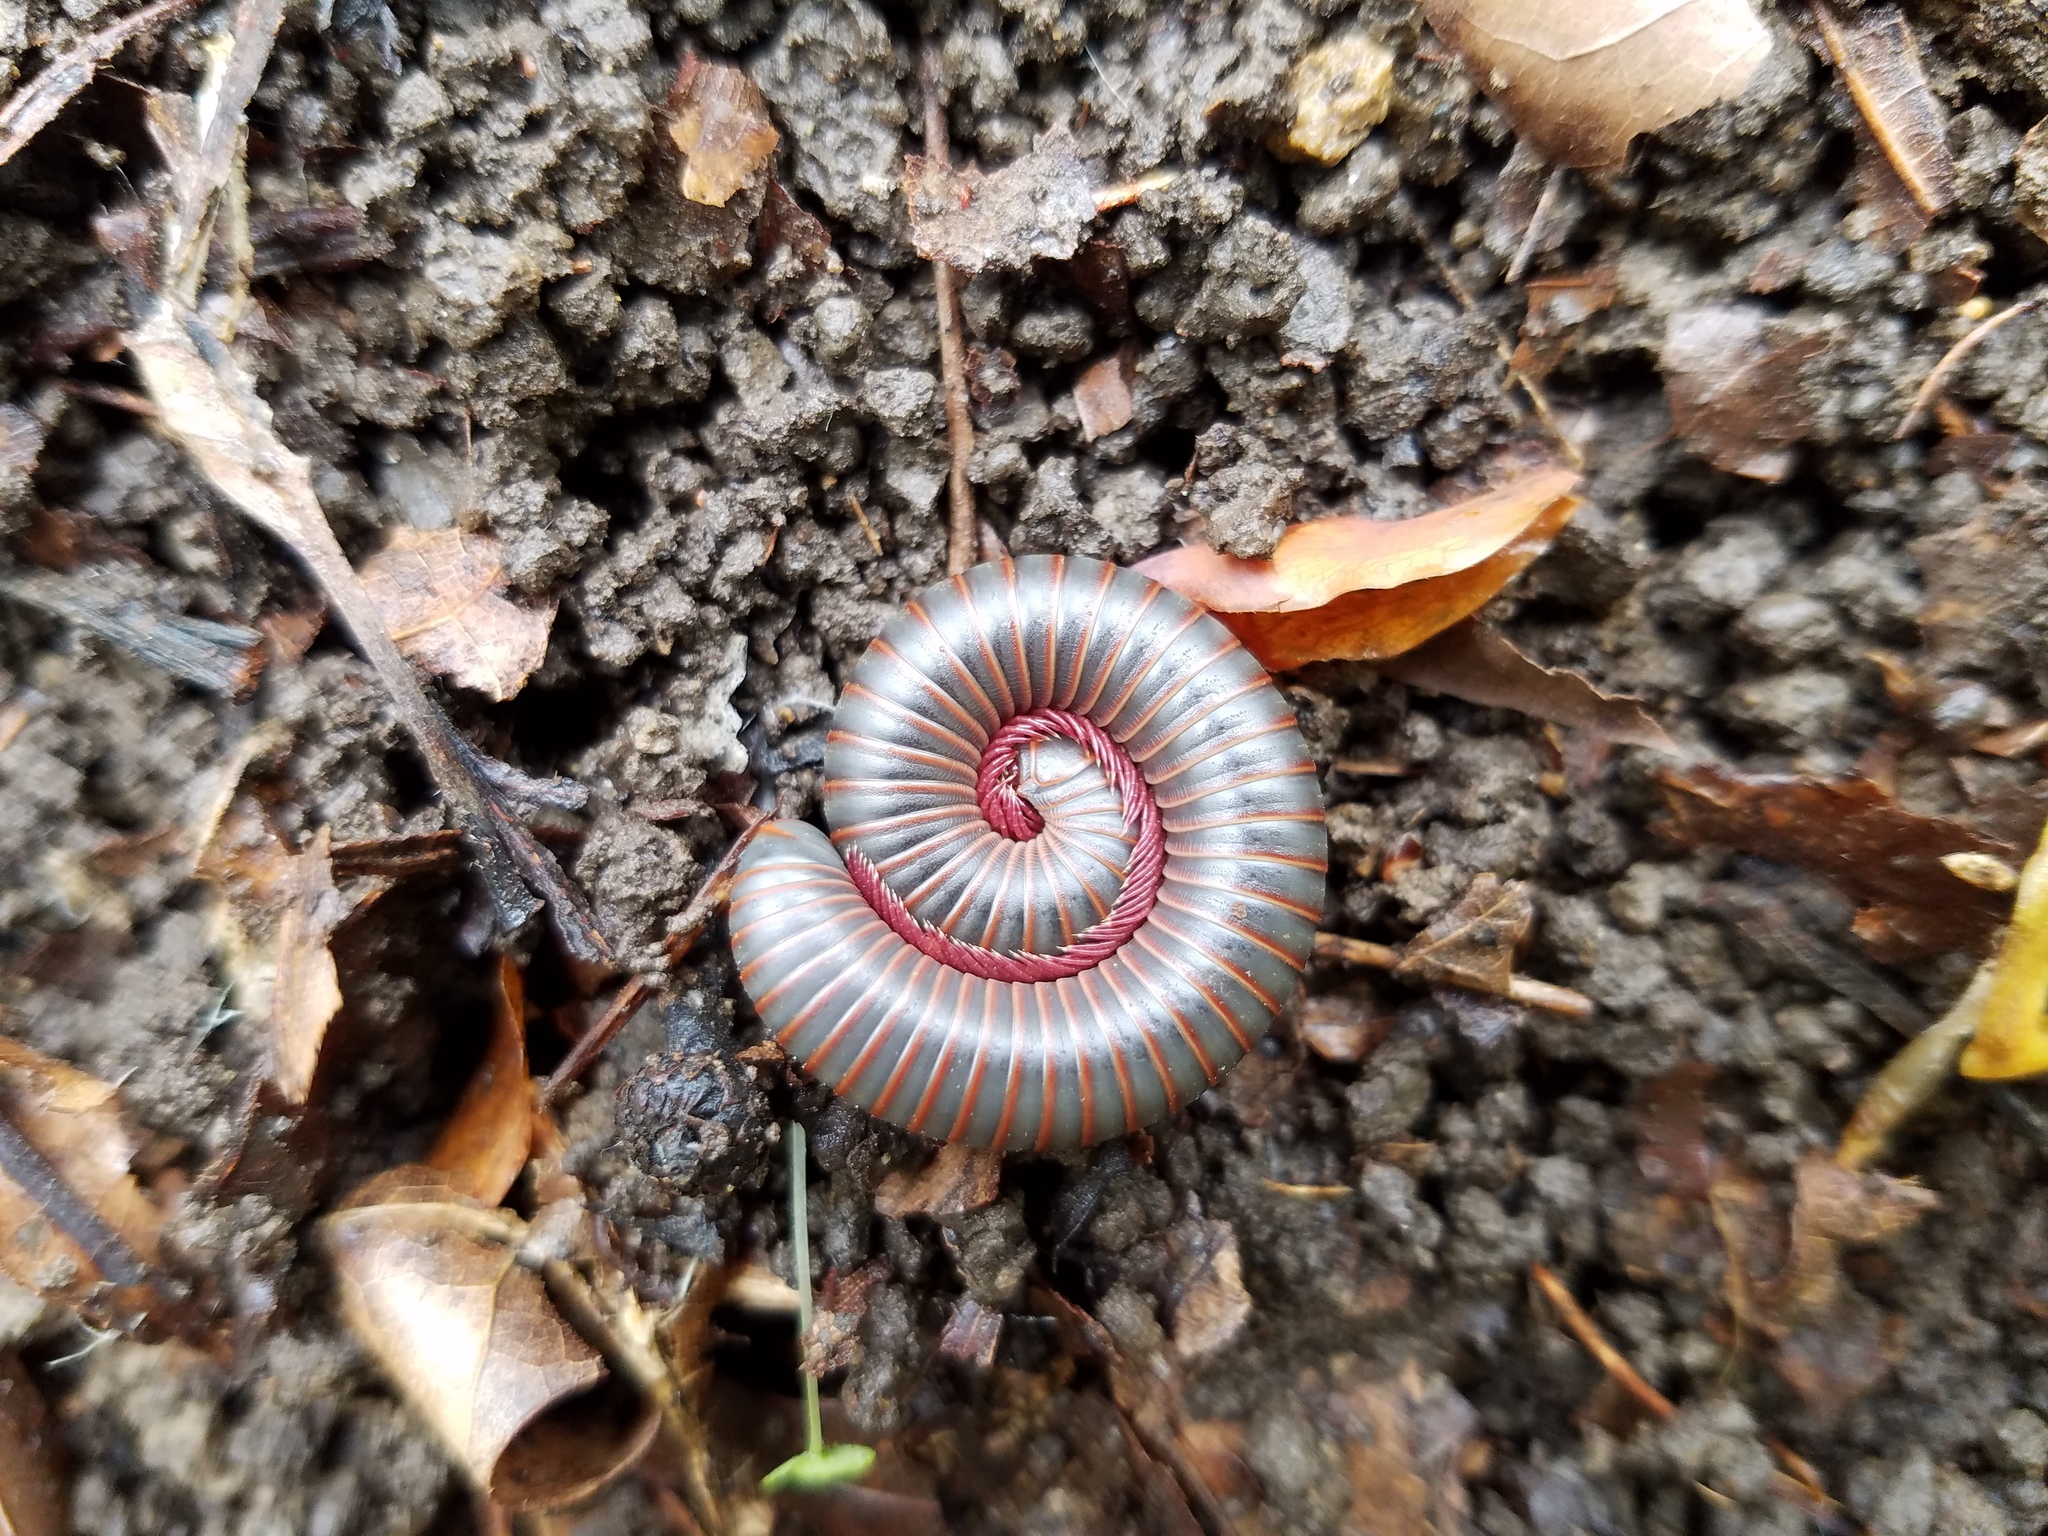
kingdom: Animalia
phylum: Arthropoda
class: Diplopoda
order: Spirobolida
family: Spirobolidae
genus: Narceus
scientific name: Narceus
